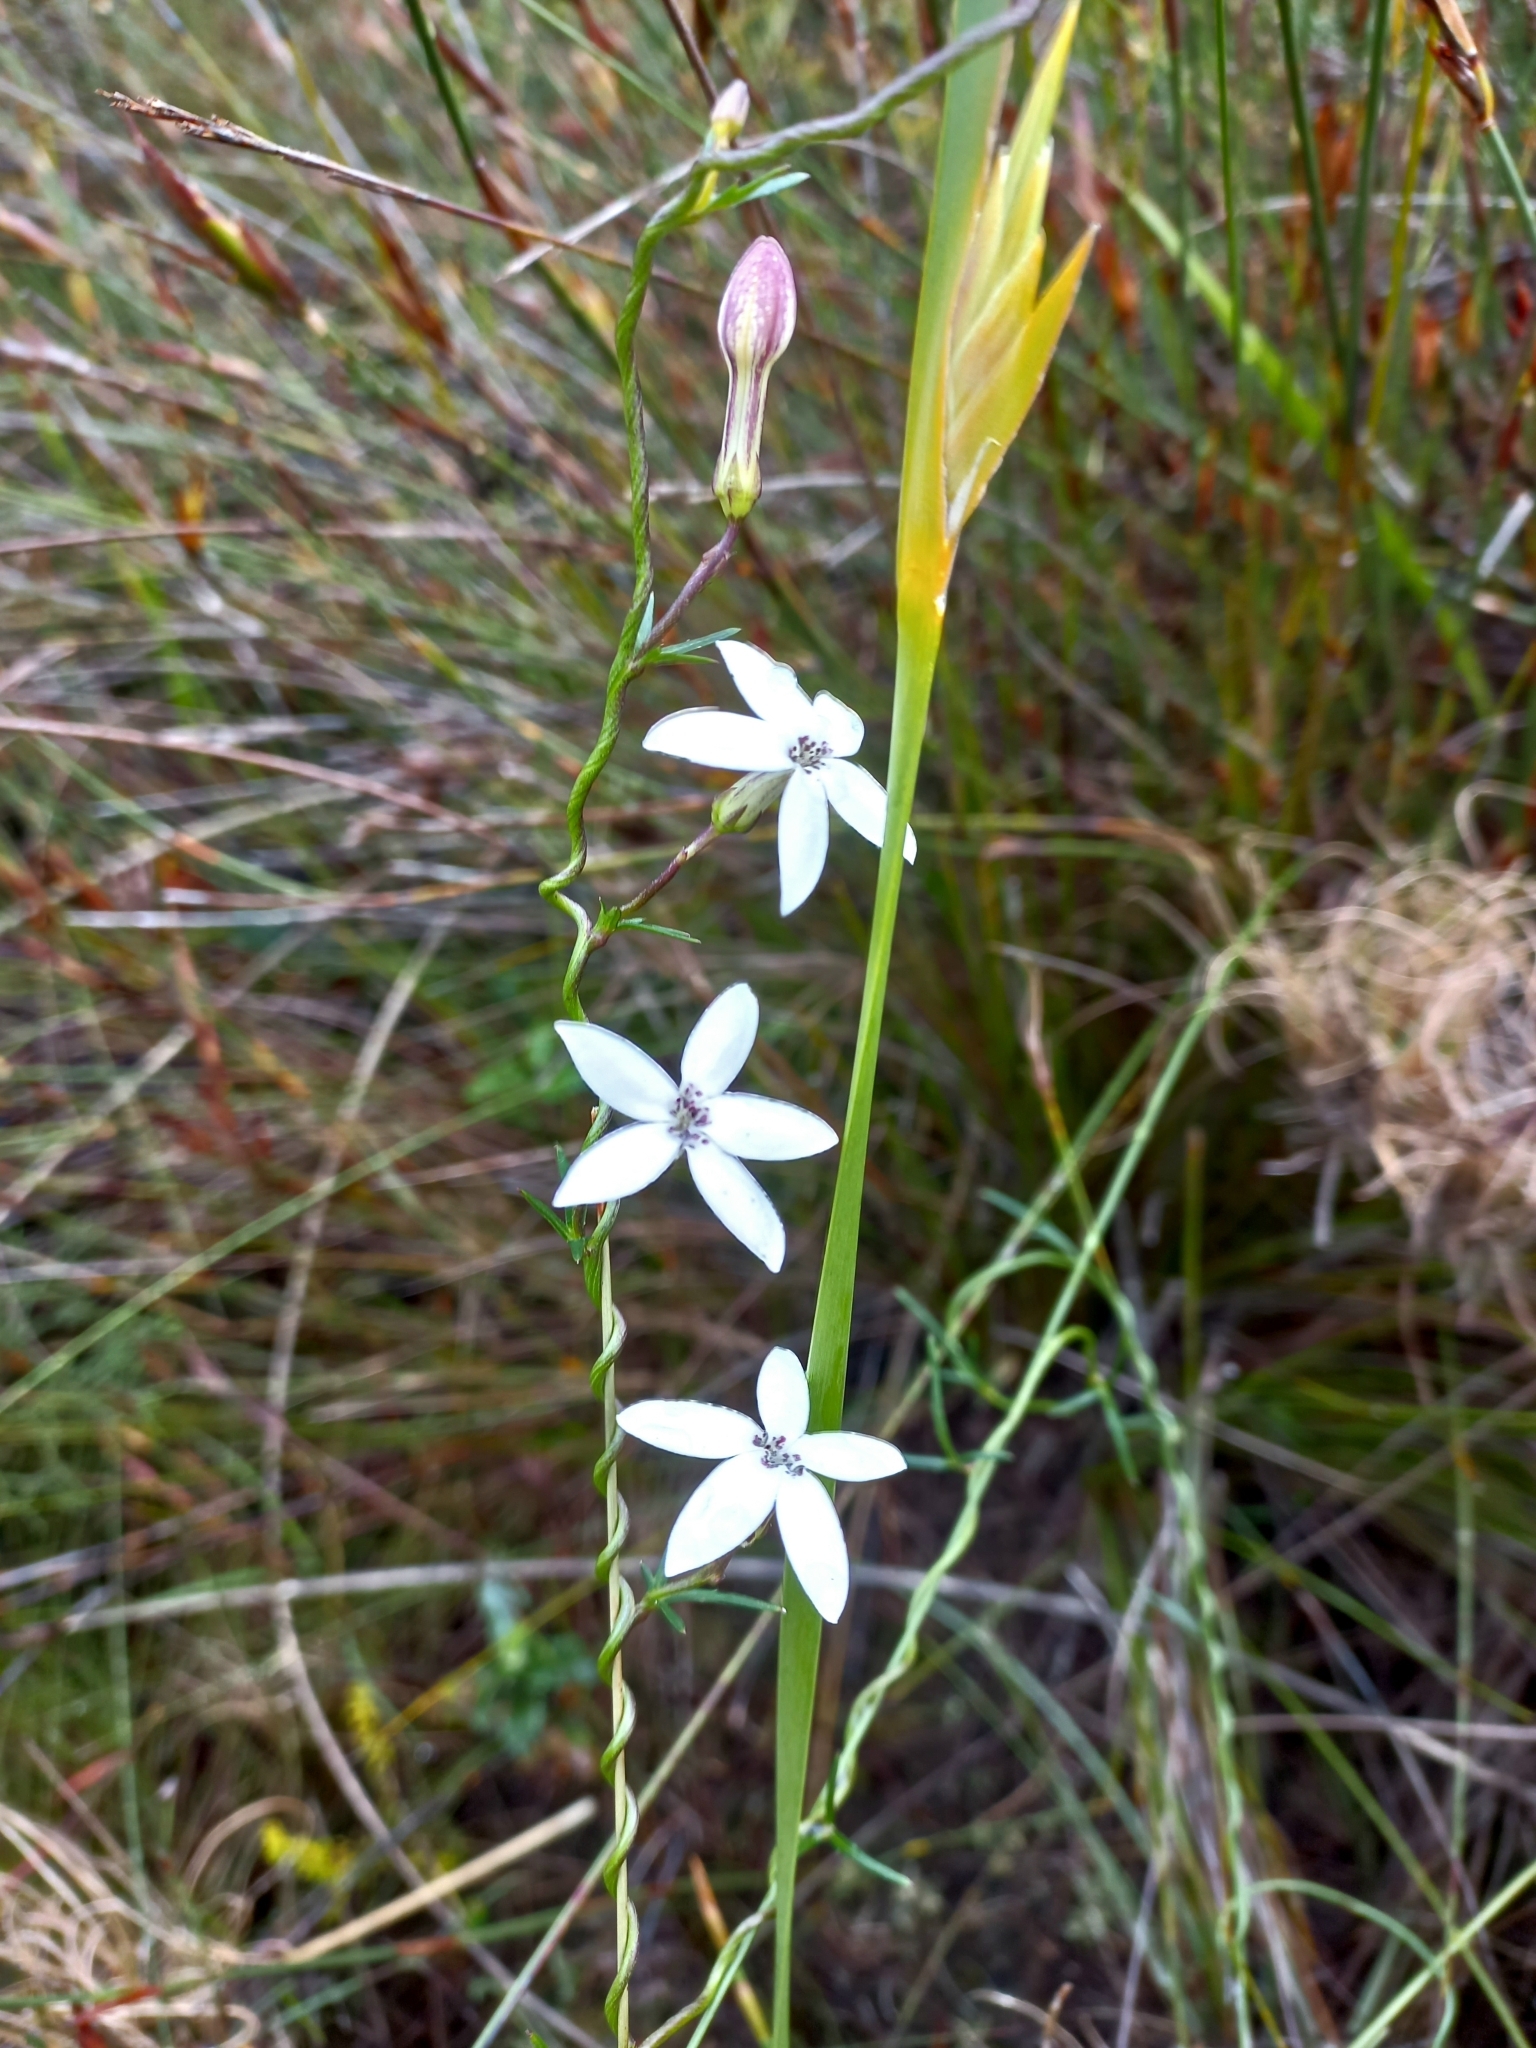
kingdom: Plantae
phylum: Tracheophyta
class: Magnoliopsida
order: Asterales
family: Campanulaceae
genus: Cyphia
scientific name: Cyphia volubilis
